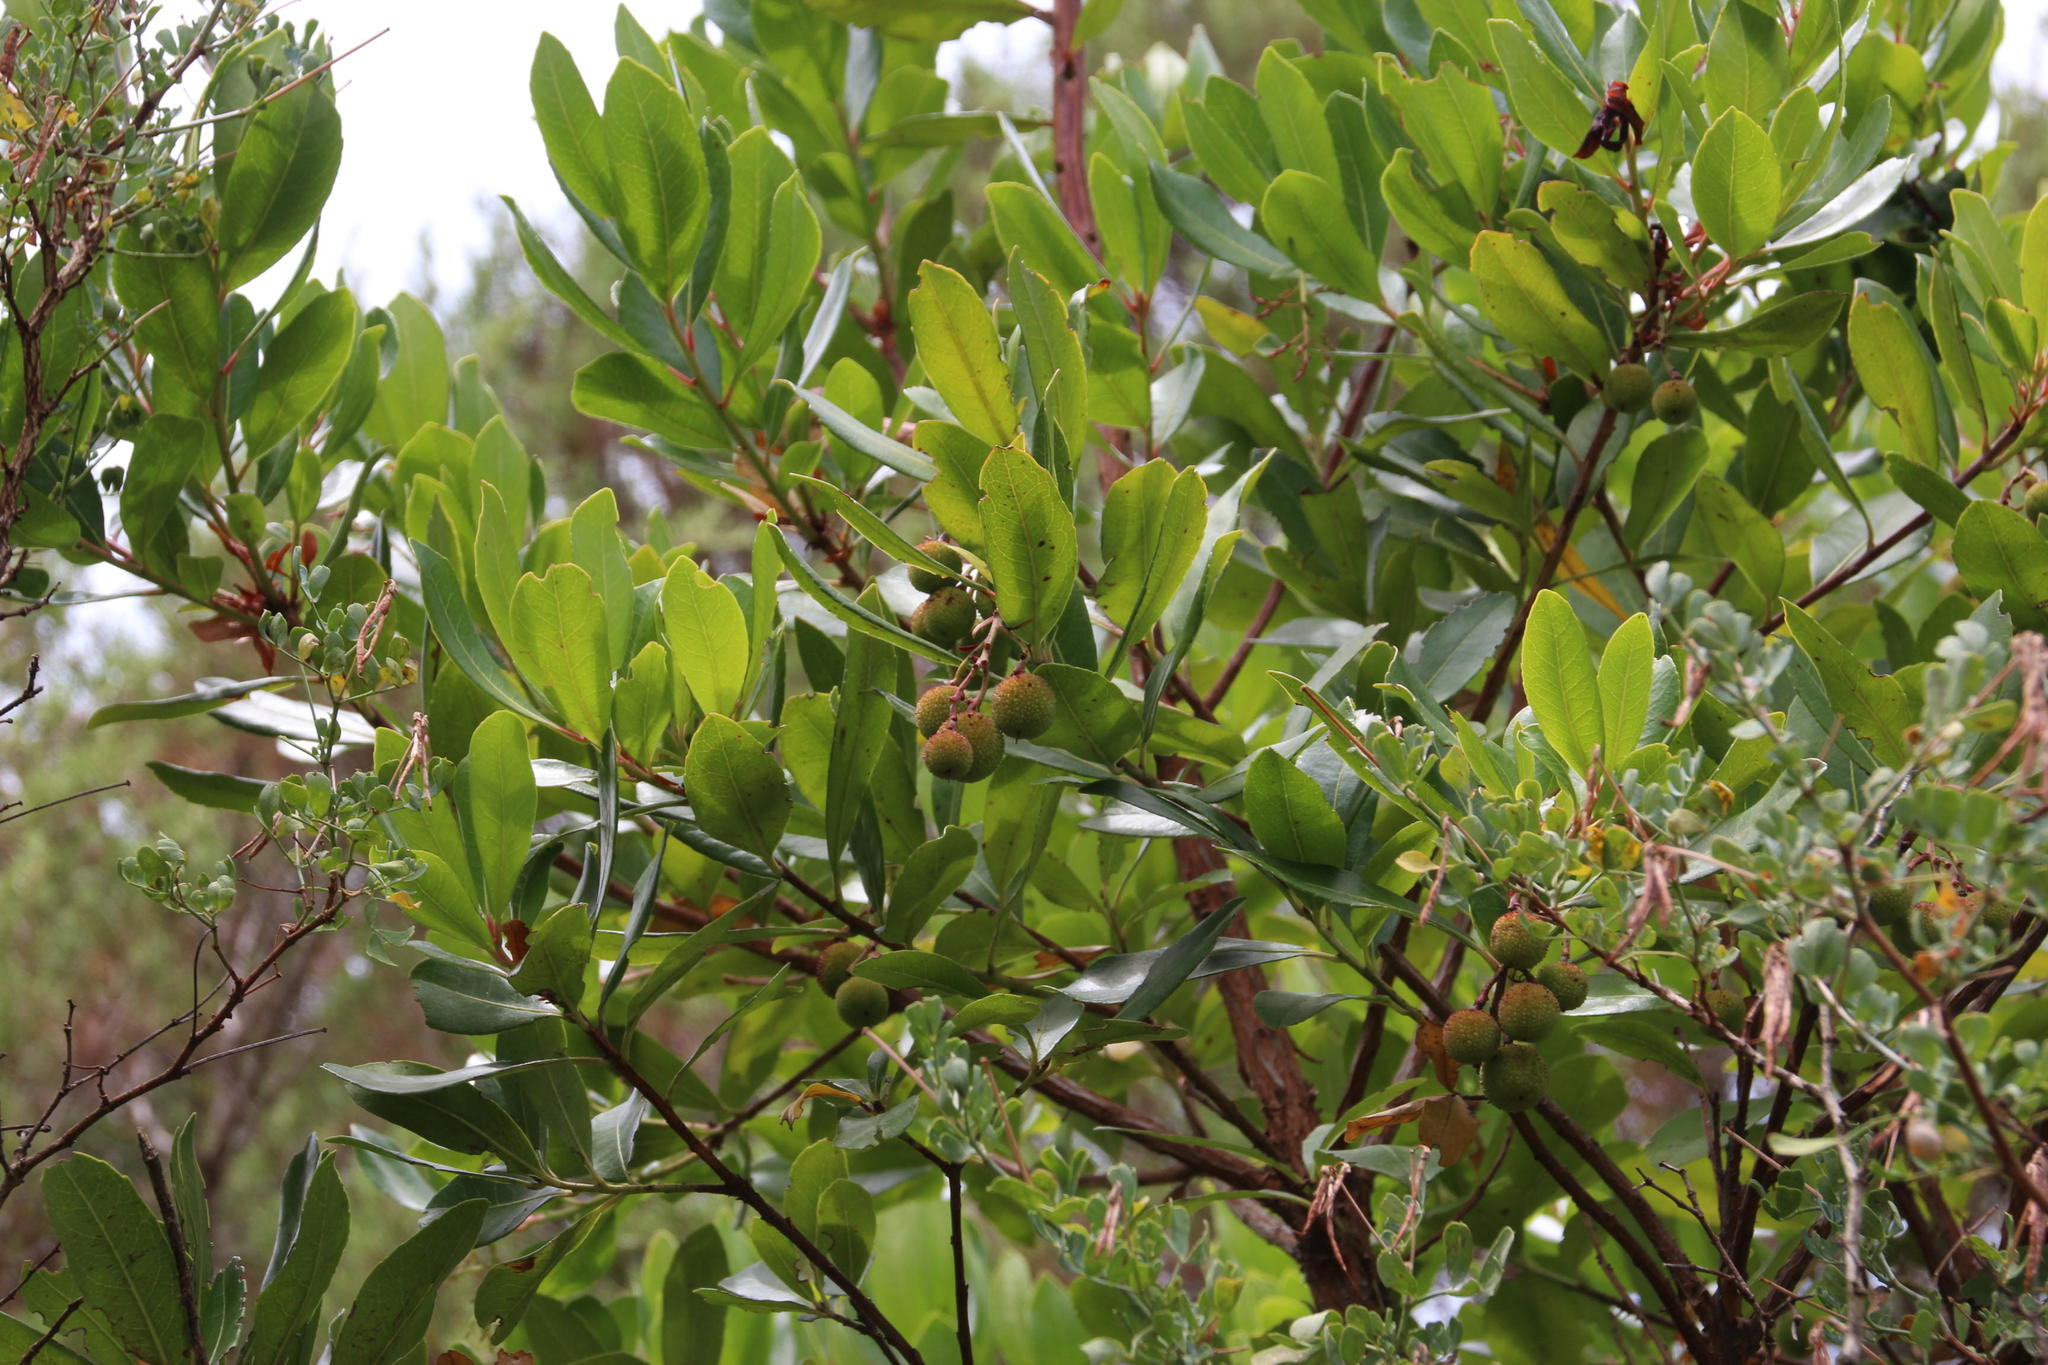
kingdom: Plantae
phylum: Tracheophyta
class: Magnoliopsida
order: Ericales
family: Ericaceae
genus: Arbutus
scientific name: Arbutus unedo
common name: Strawberry-tree
